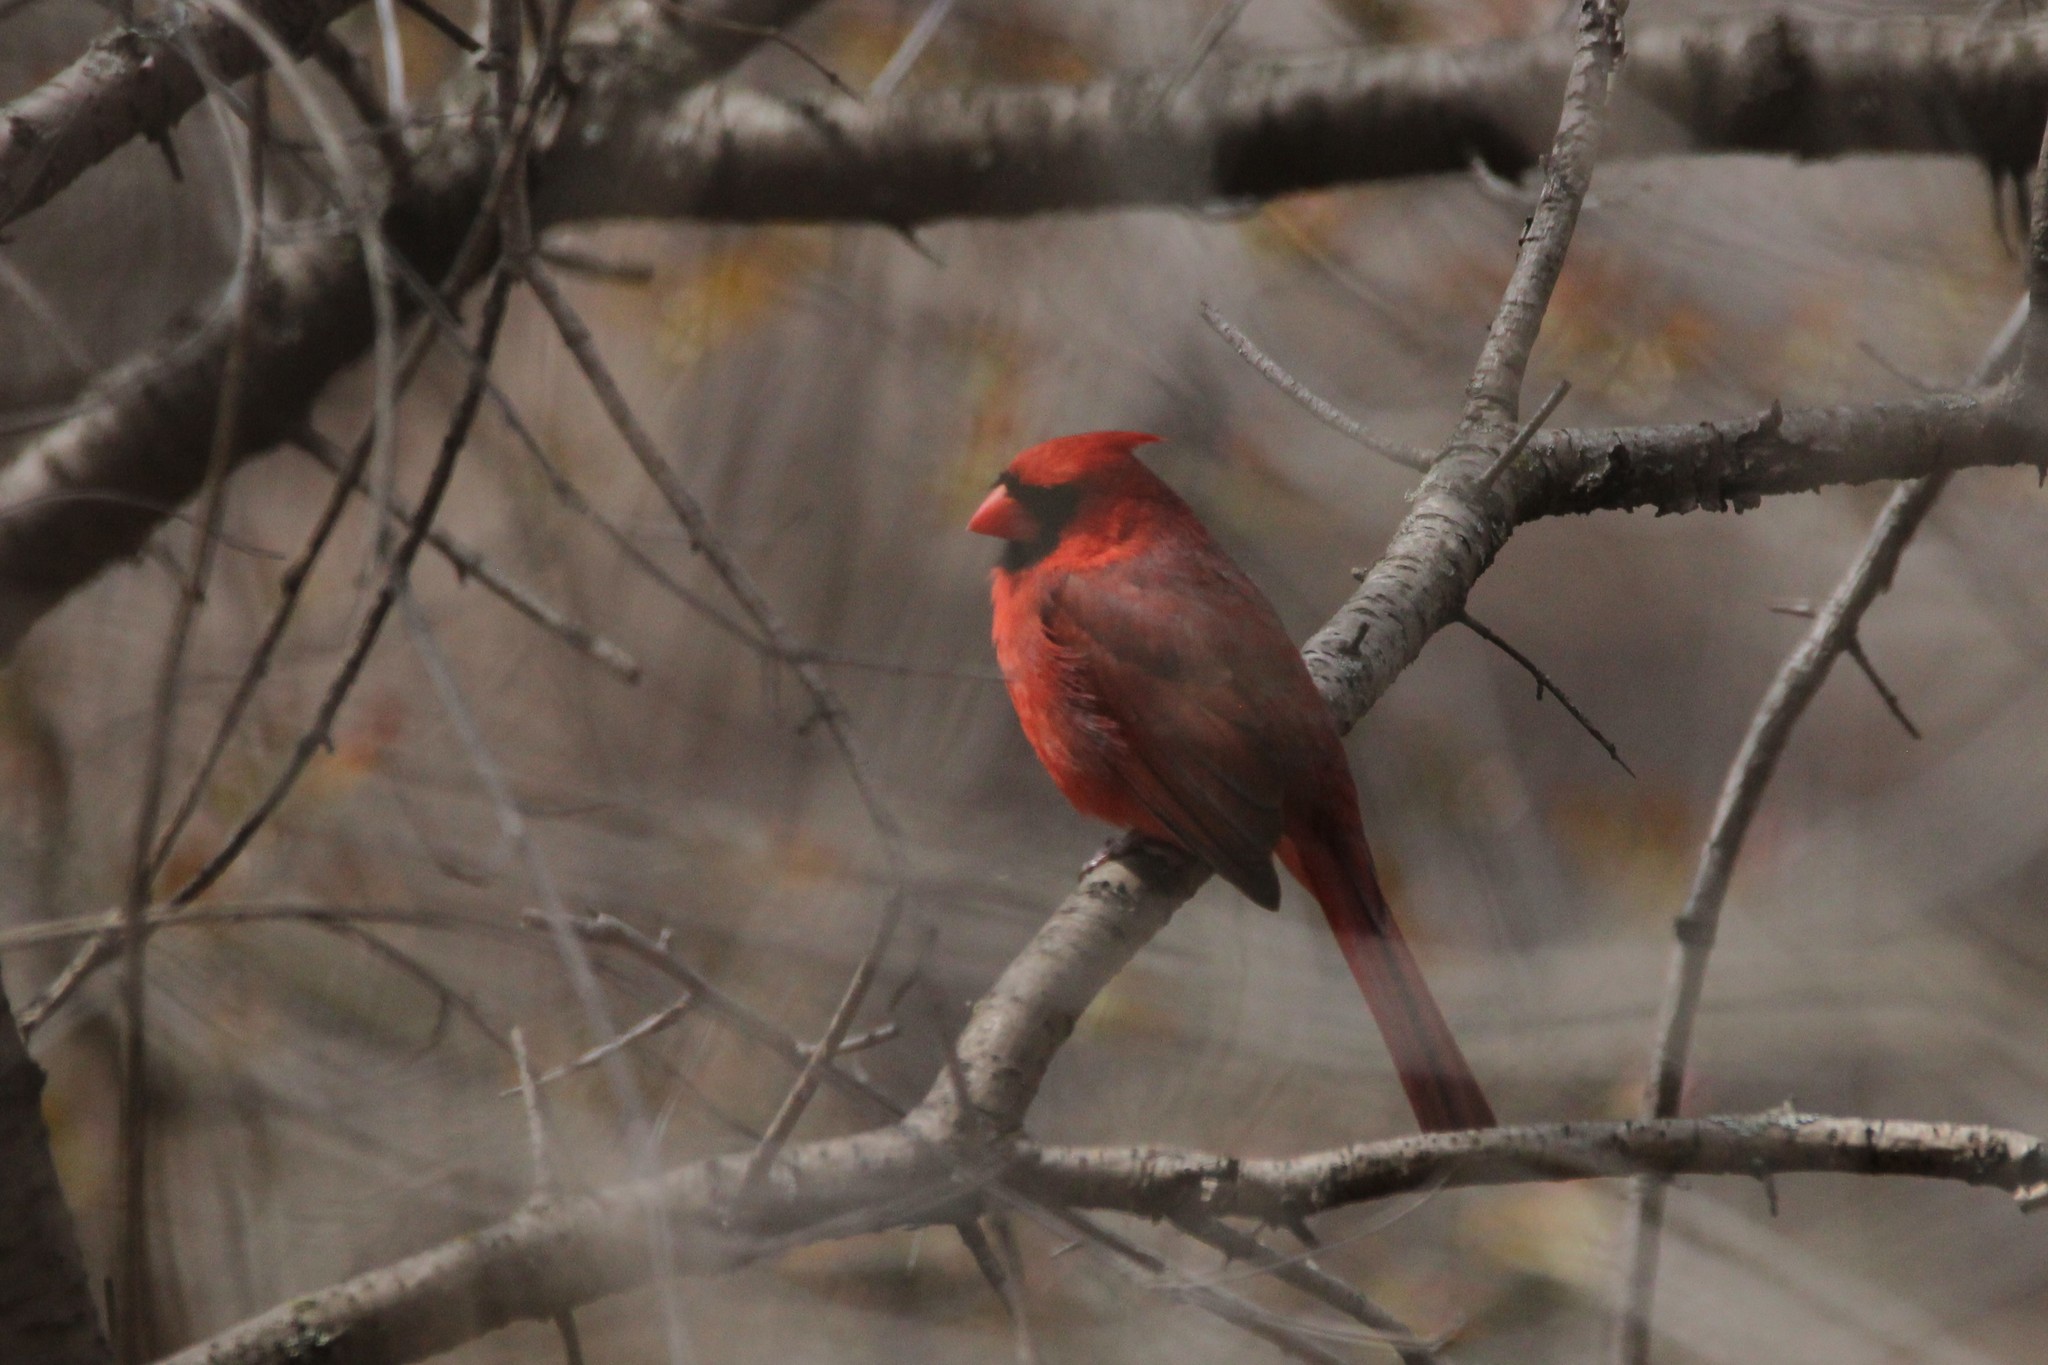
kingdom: Animalia
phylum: Chordata
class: Aves
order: Passeriformes
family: Cardinalidae
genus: Cardinalis
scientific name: Cardinalis cardinalis
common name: Northern cardinal
